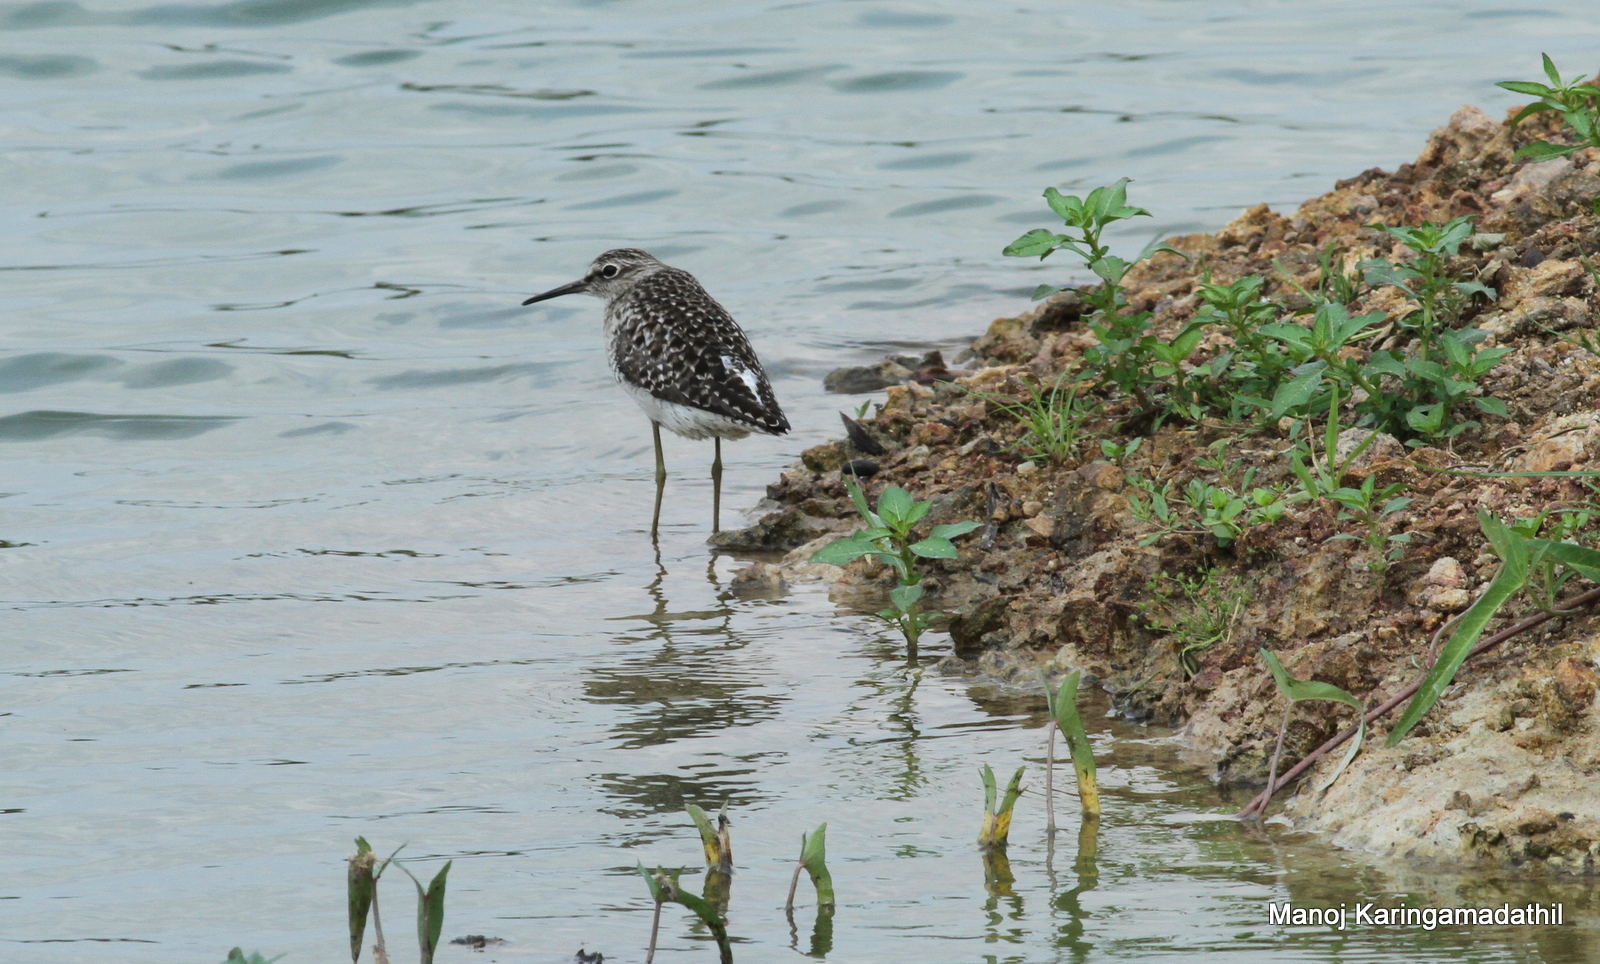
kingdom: Animalia
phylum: Chordata
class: Aves
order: Charadriiformes
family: Scolopacidae
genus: Tringa
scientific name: Tringa glareola
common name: Wood sandpiper
